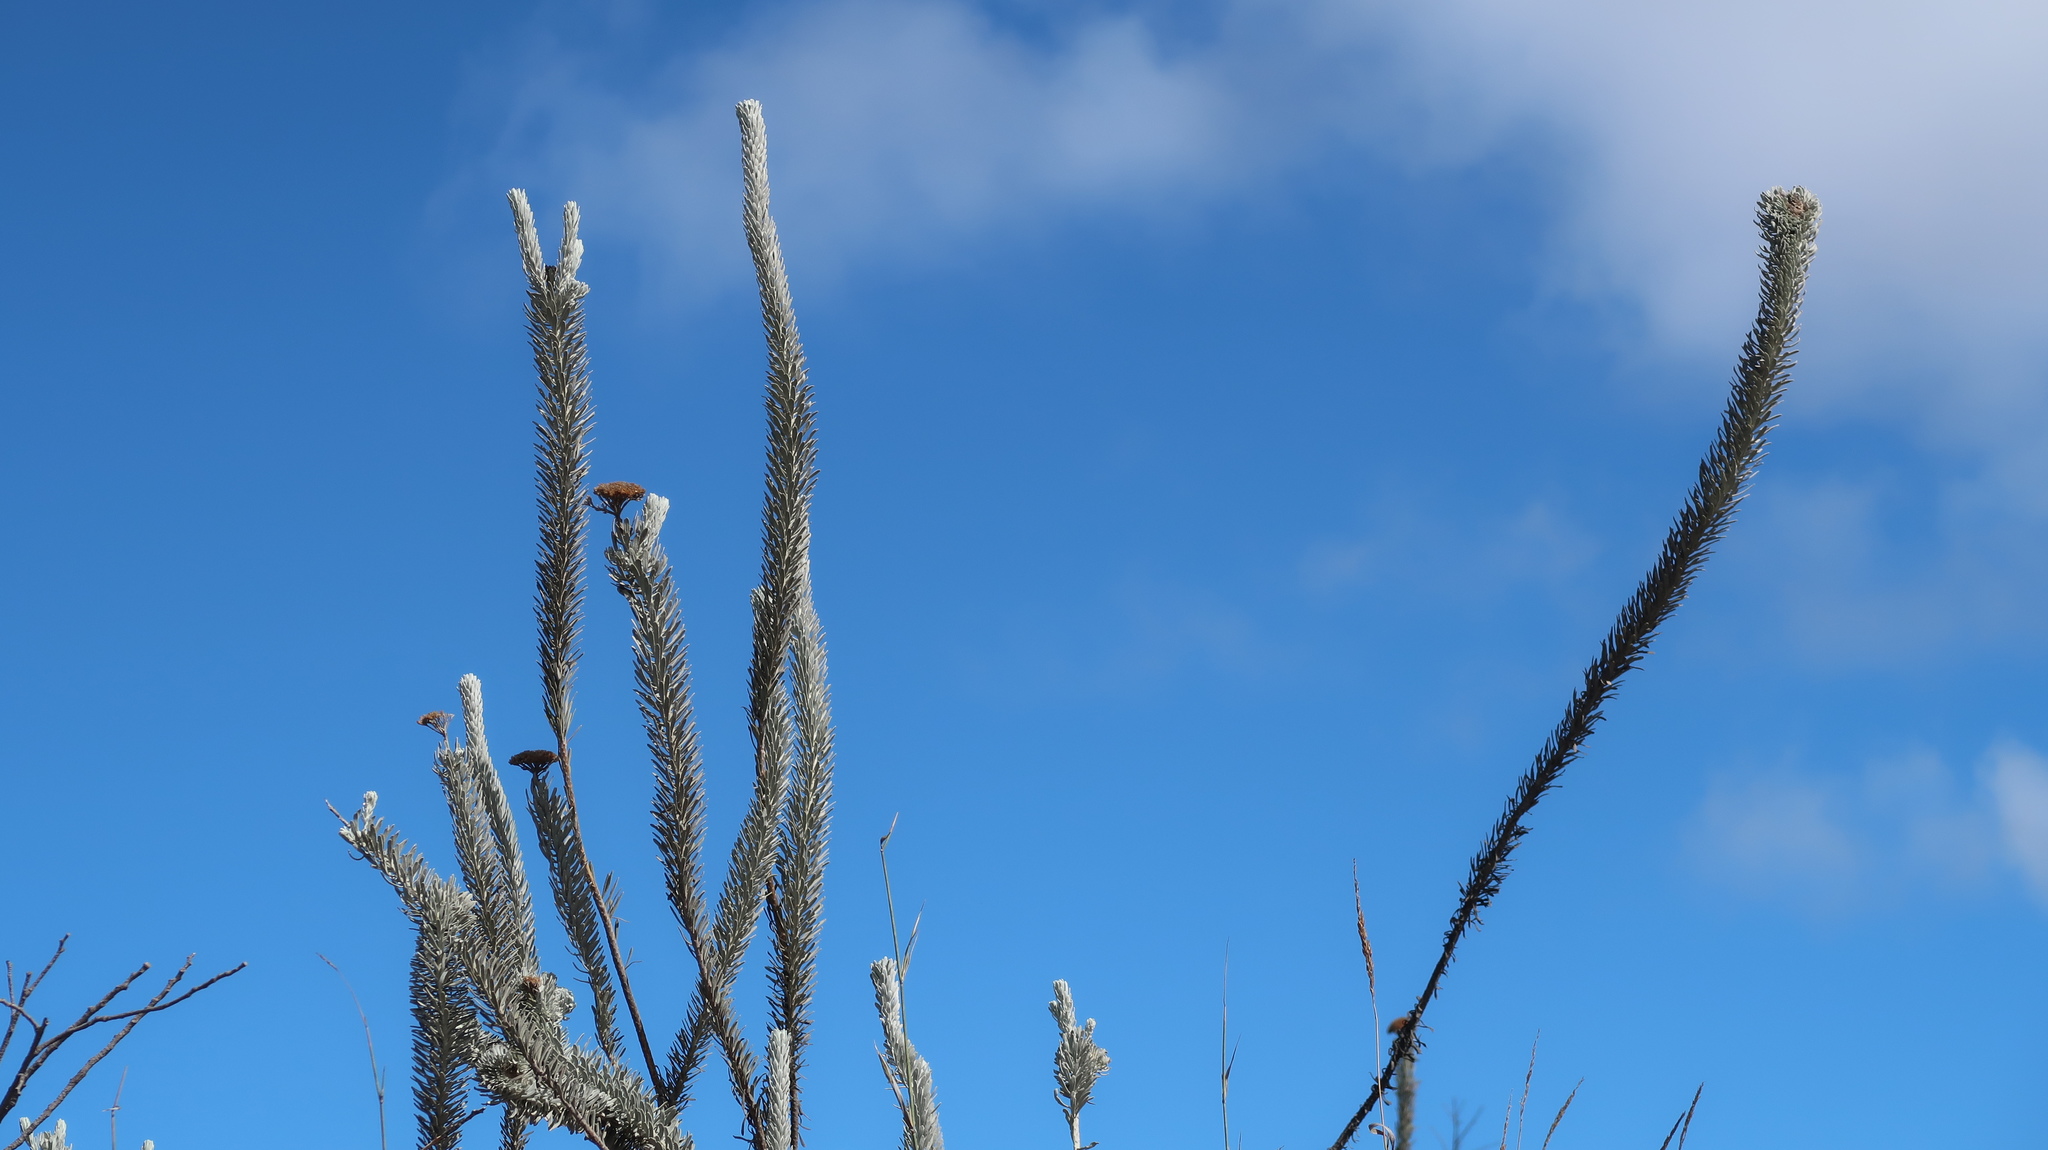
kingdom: Plantae
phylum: Tracheophyta
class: Magnoliopsida
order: Asterales
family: Asteraceae
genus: Athanasia
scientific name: Athanasia tomentosa
